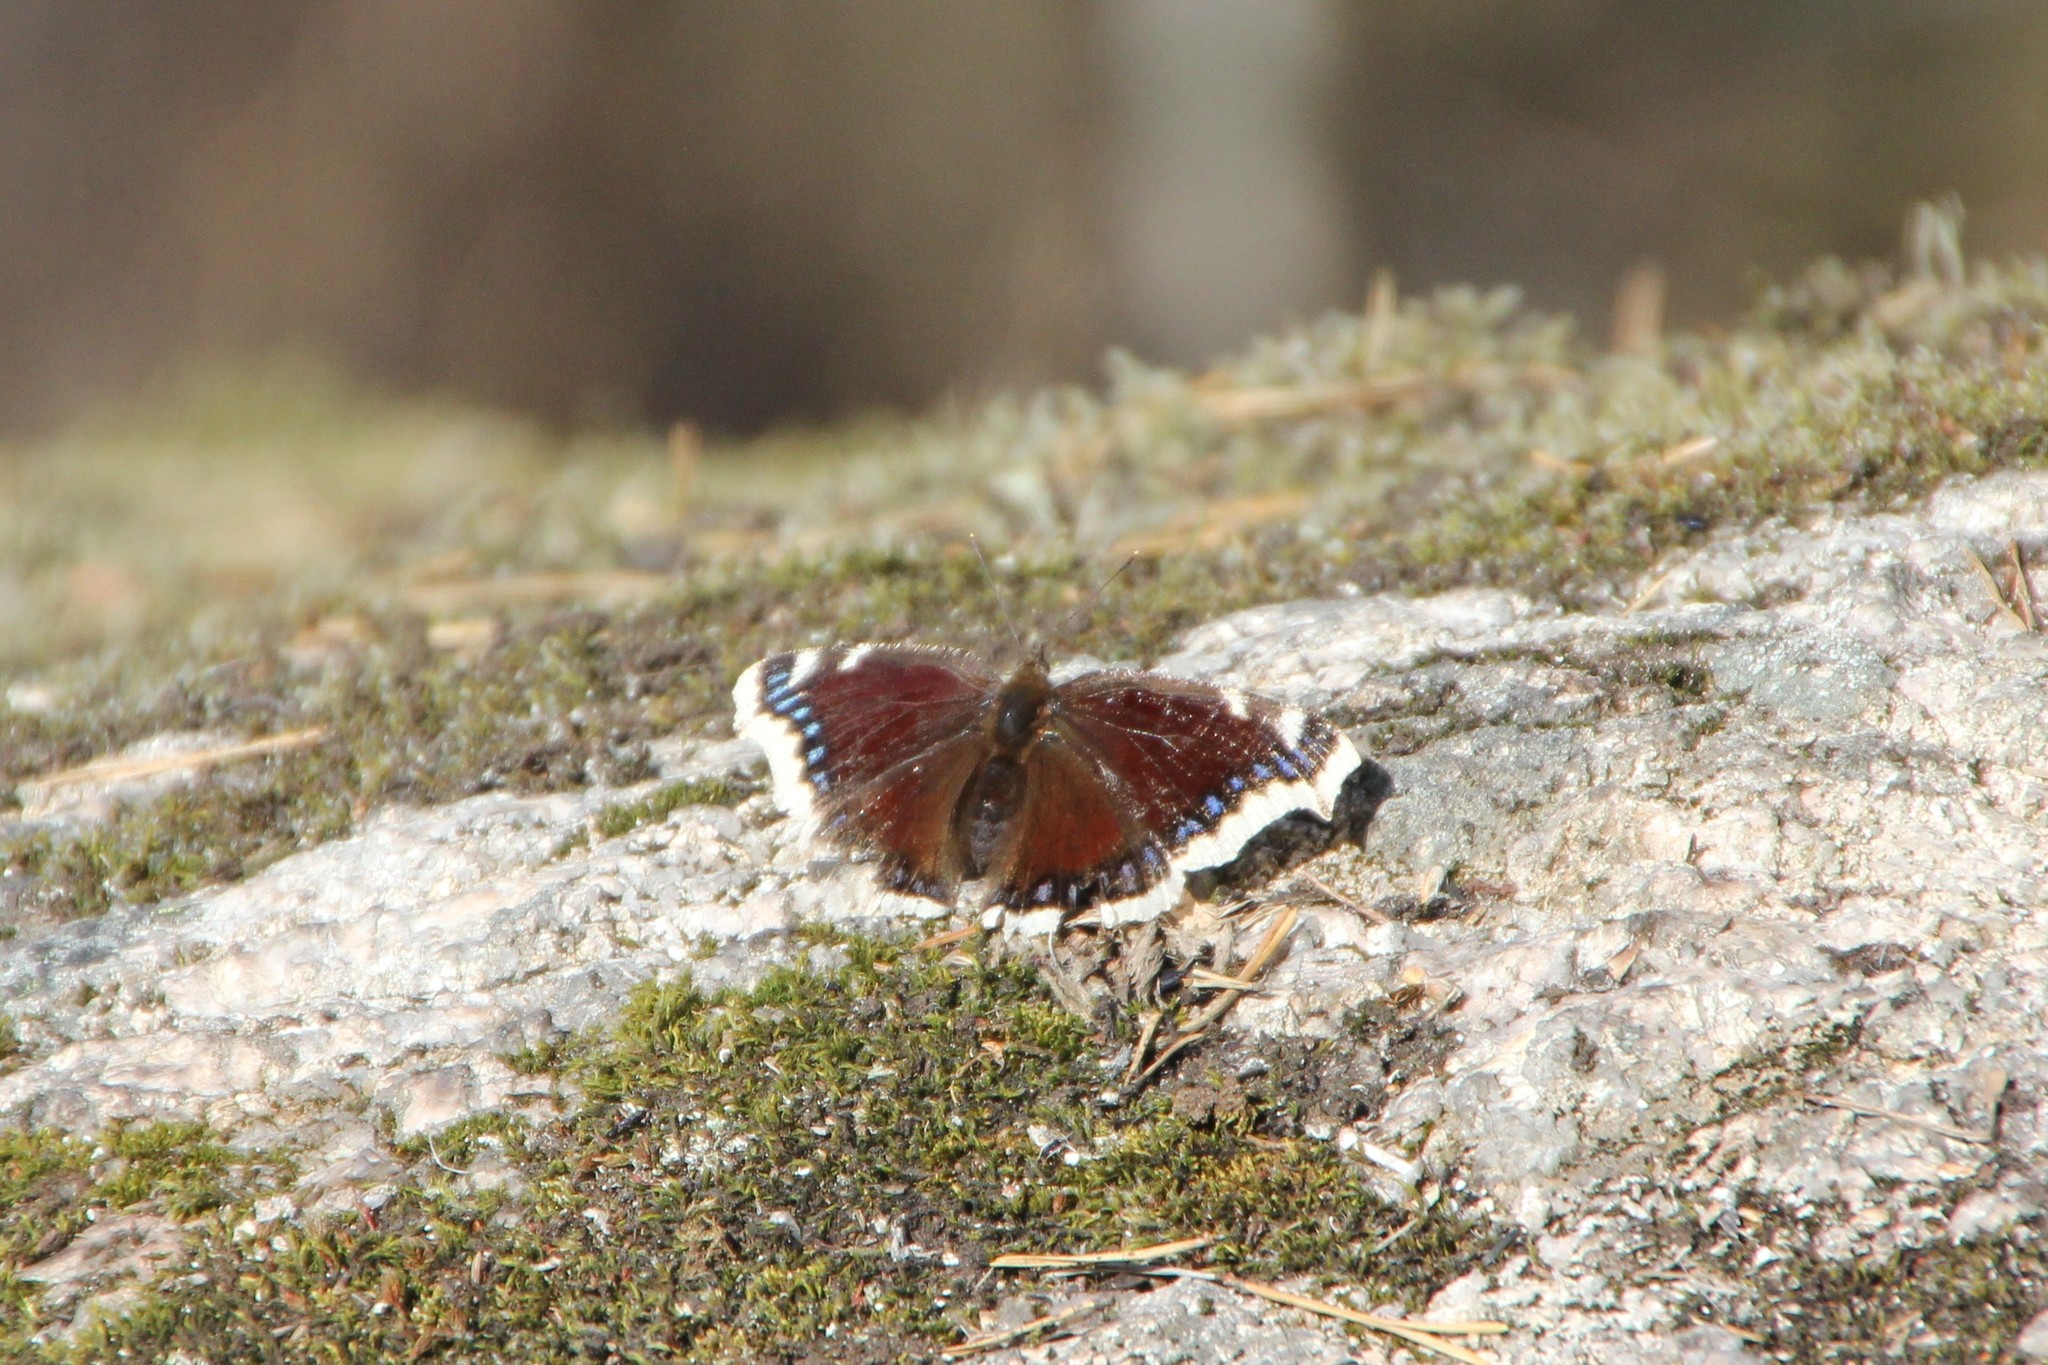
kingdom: Animalia
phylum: Arthropoda
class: Insecta
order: Lepidoptera
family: Nymphalidae
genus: Nymphalis
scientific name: Nymphalis antiopa
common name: Camberwell beauty
